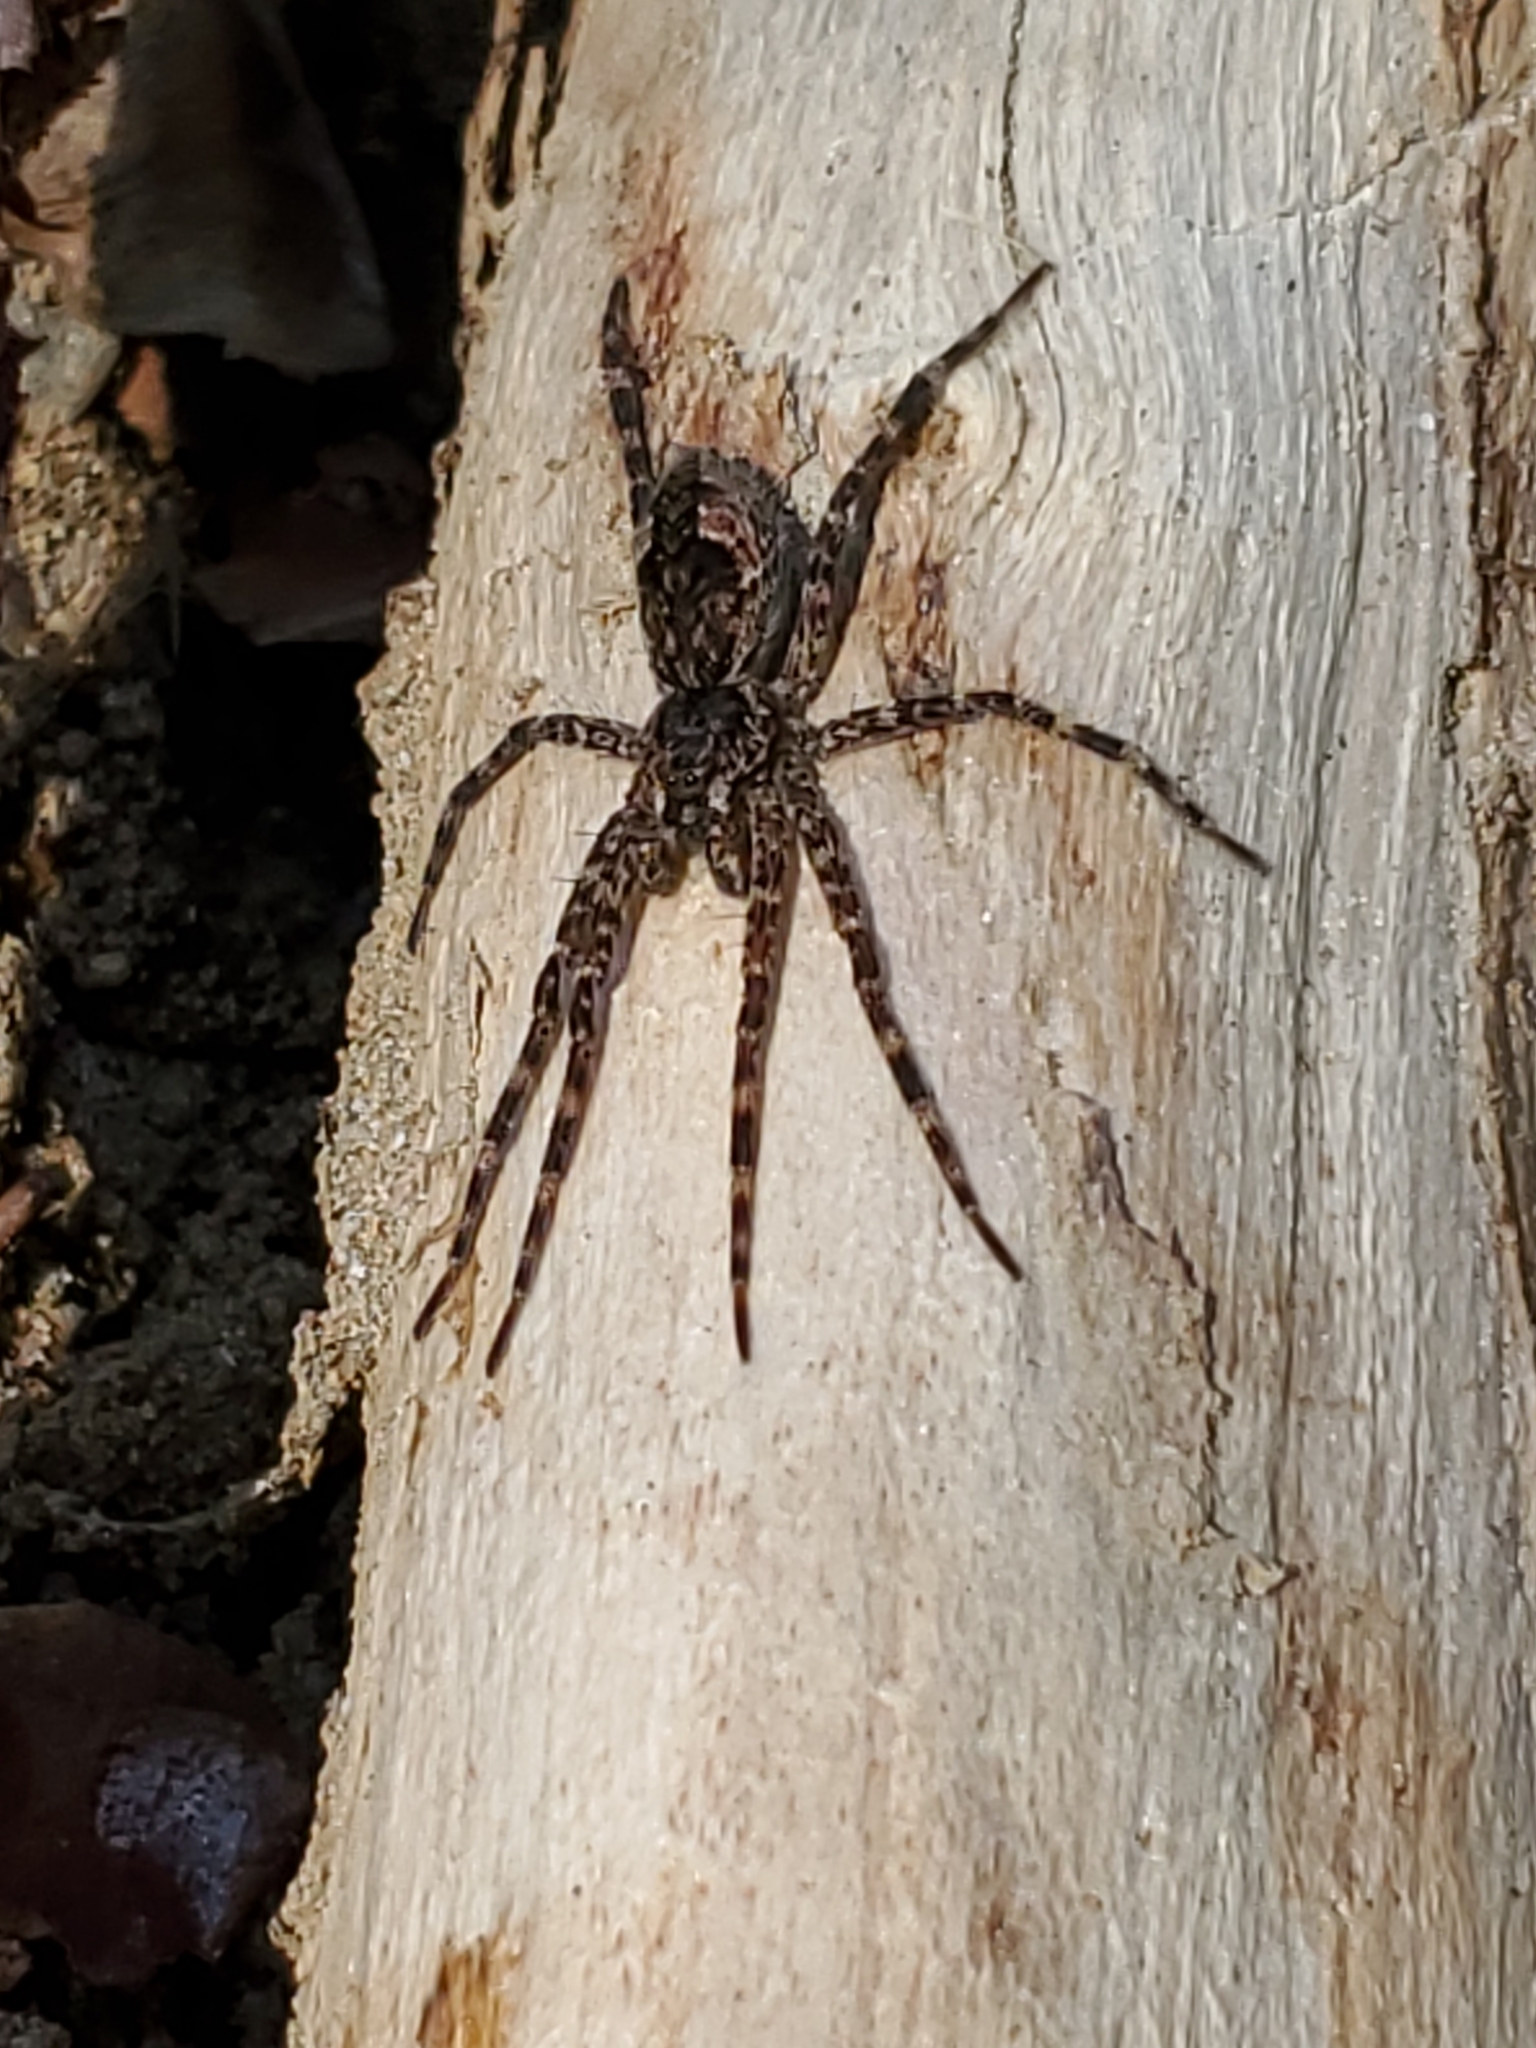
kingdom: Animalia
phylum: Arthropoda
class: Arachnida
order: Araneae
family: Pisauridae
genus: Dolomedes
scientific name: Dolomedes tenebrosus
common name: Dark fishing spider
